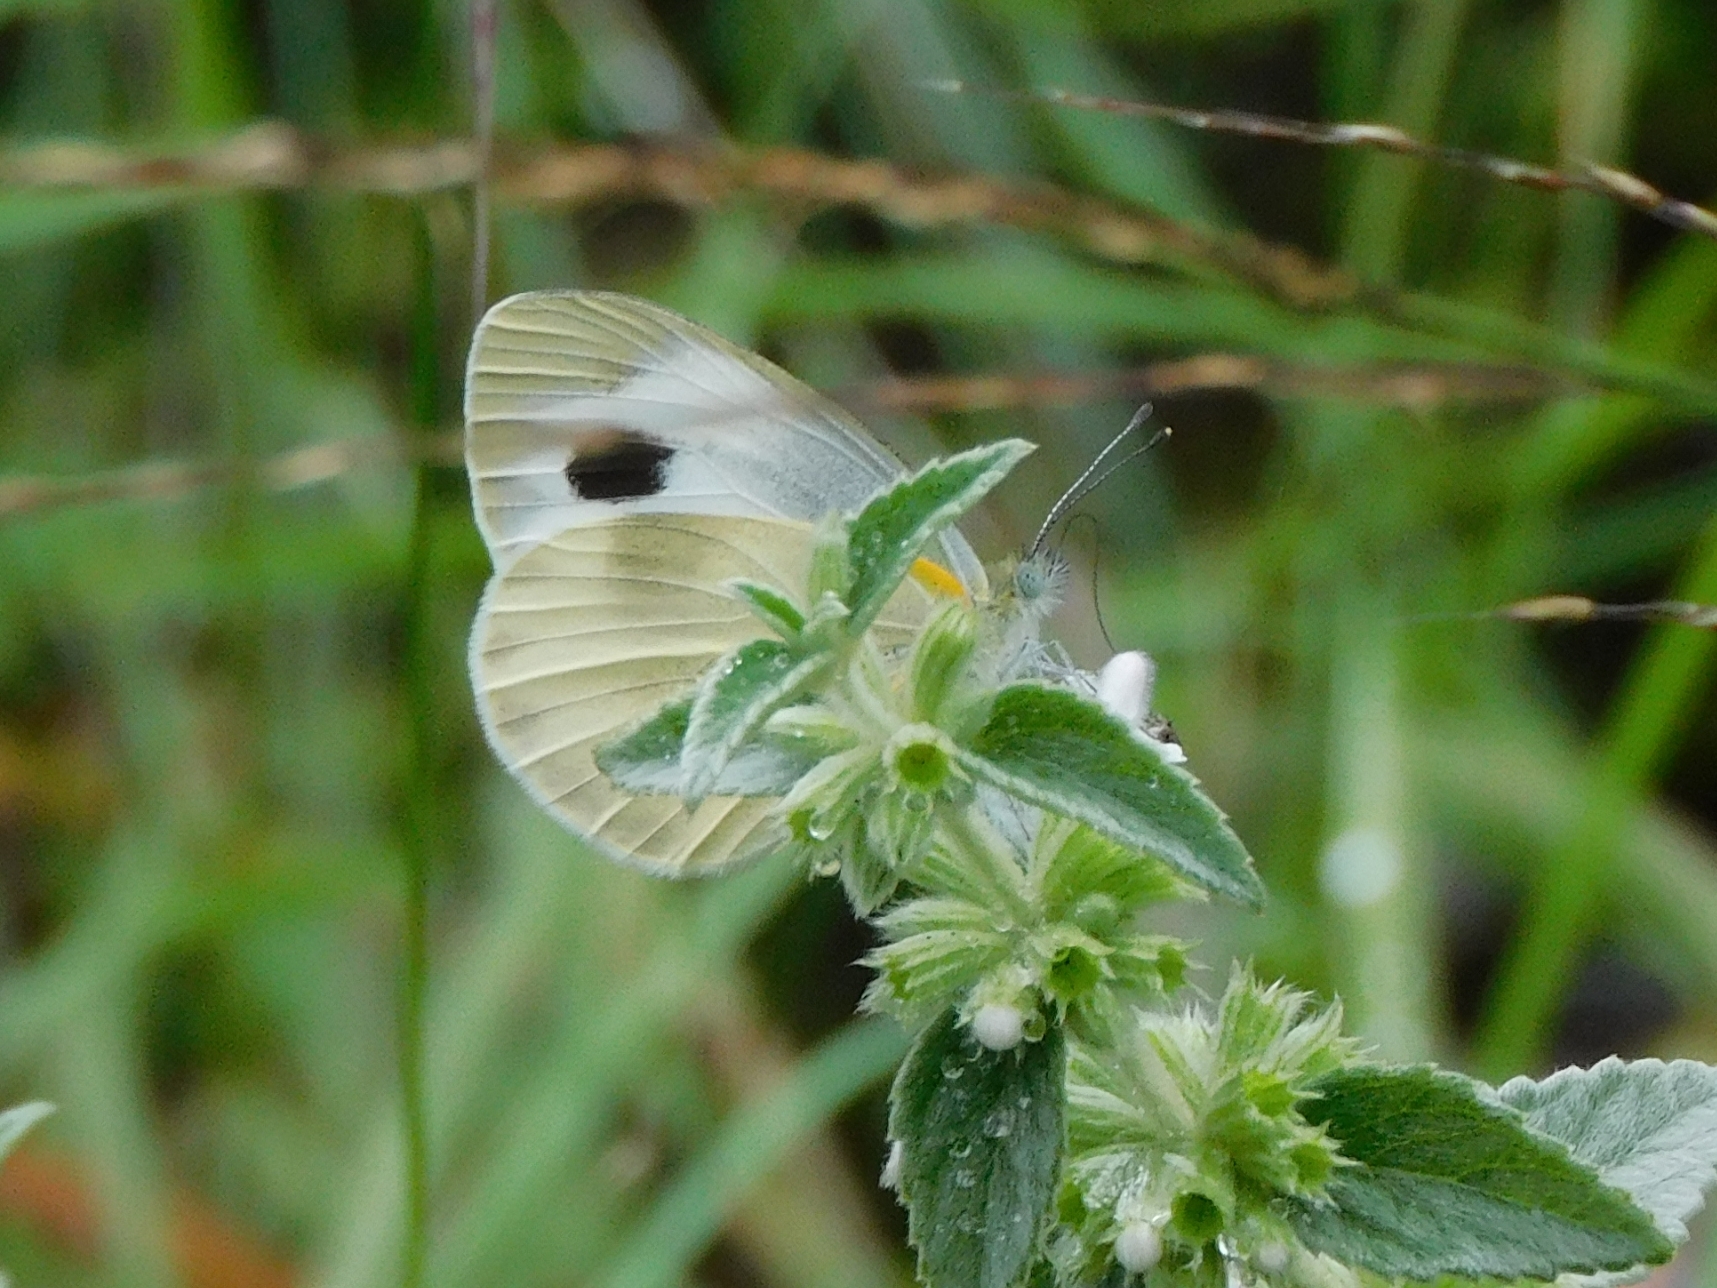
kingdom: Animalia
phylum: Arthropoda
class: Insecta
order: Lepidoptera
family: Pieridae
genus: Pieris
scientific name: Pieris canidia
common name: Indian cabbage white
